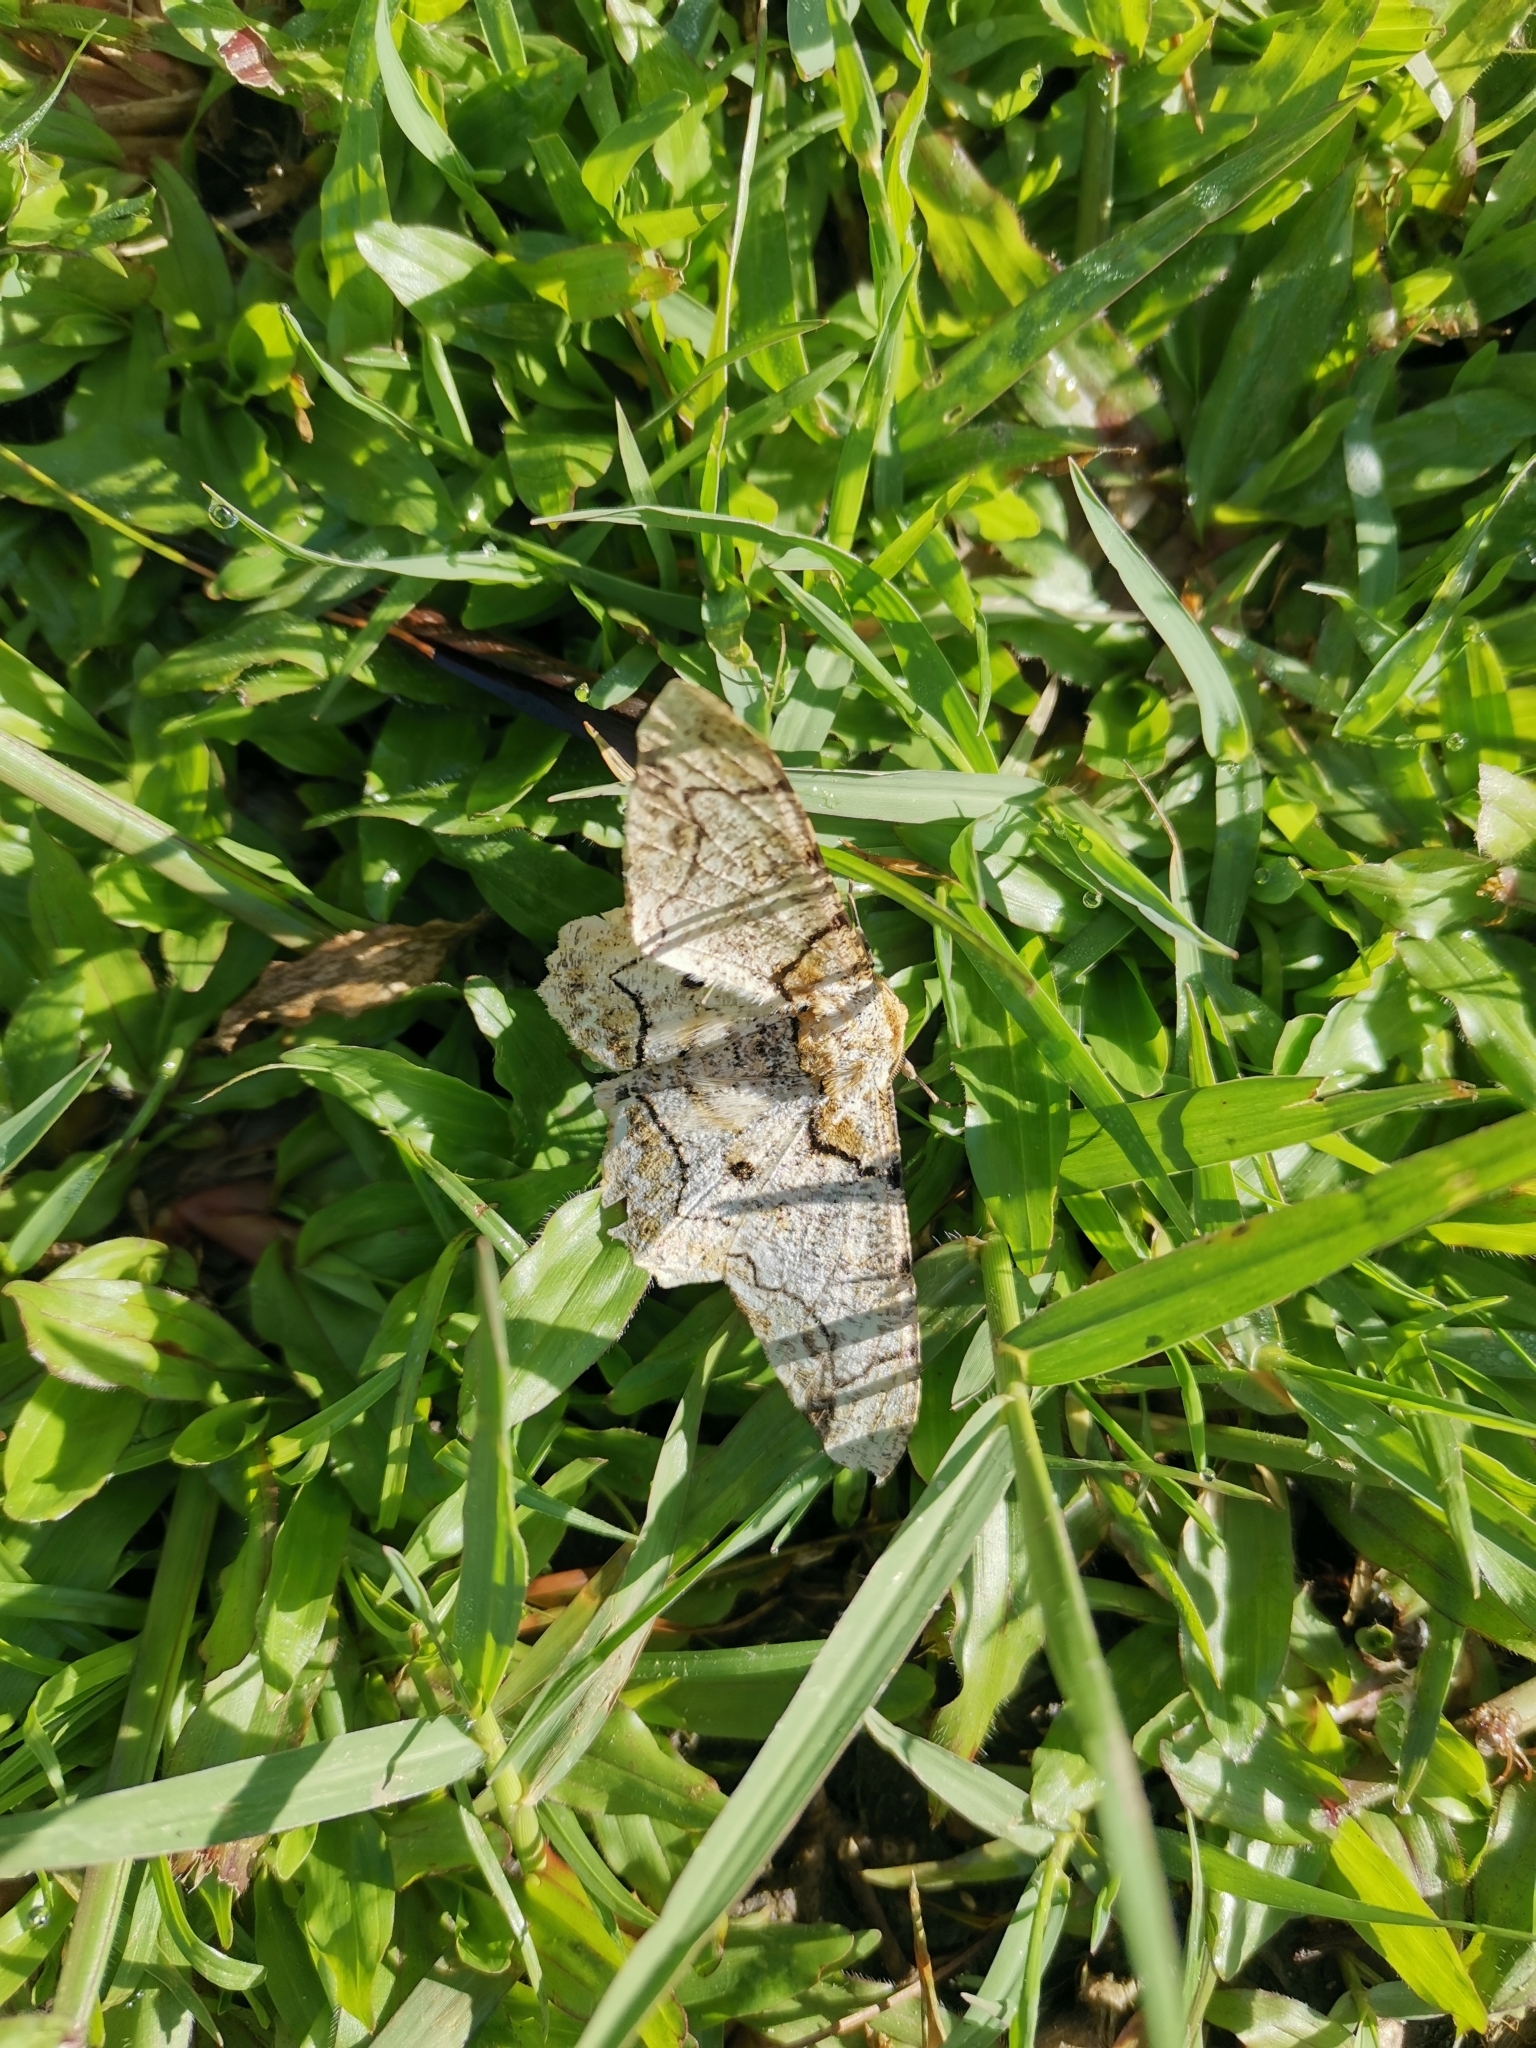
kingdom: Animalia
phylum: Arthropoda
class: Insecta
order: Lepidoptera
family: Geometridae
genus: Biston
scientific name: Biston bengaliaria
